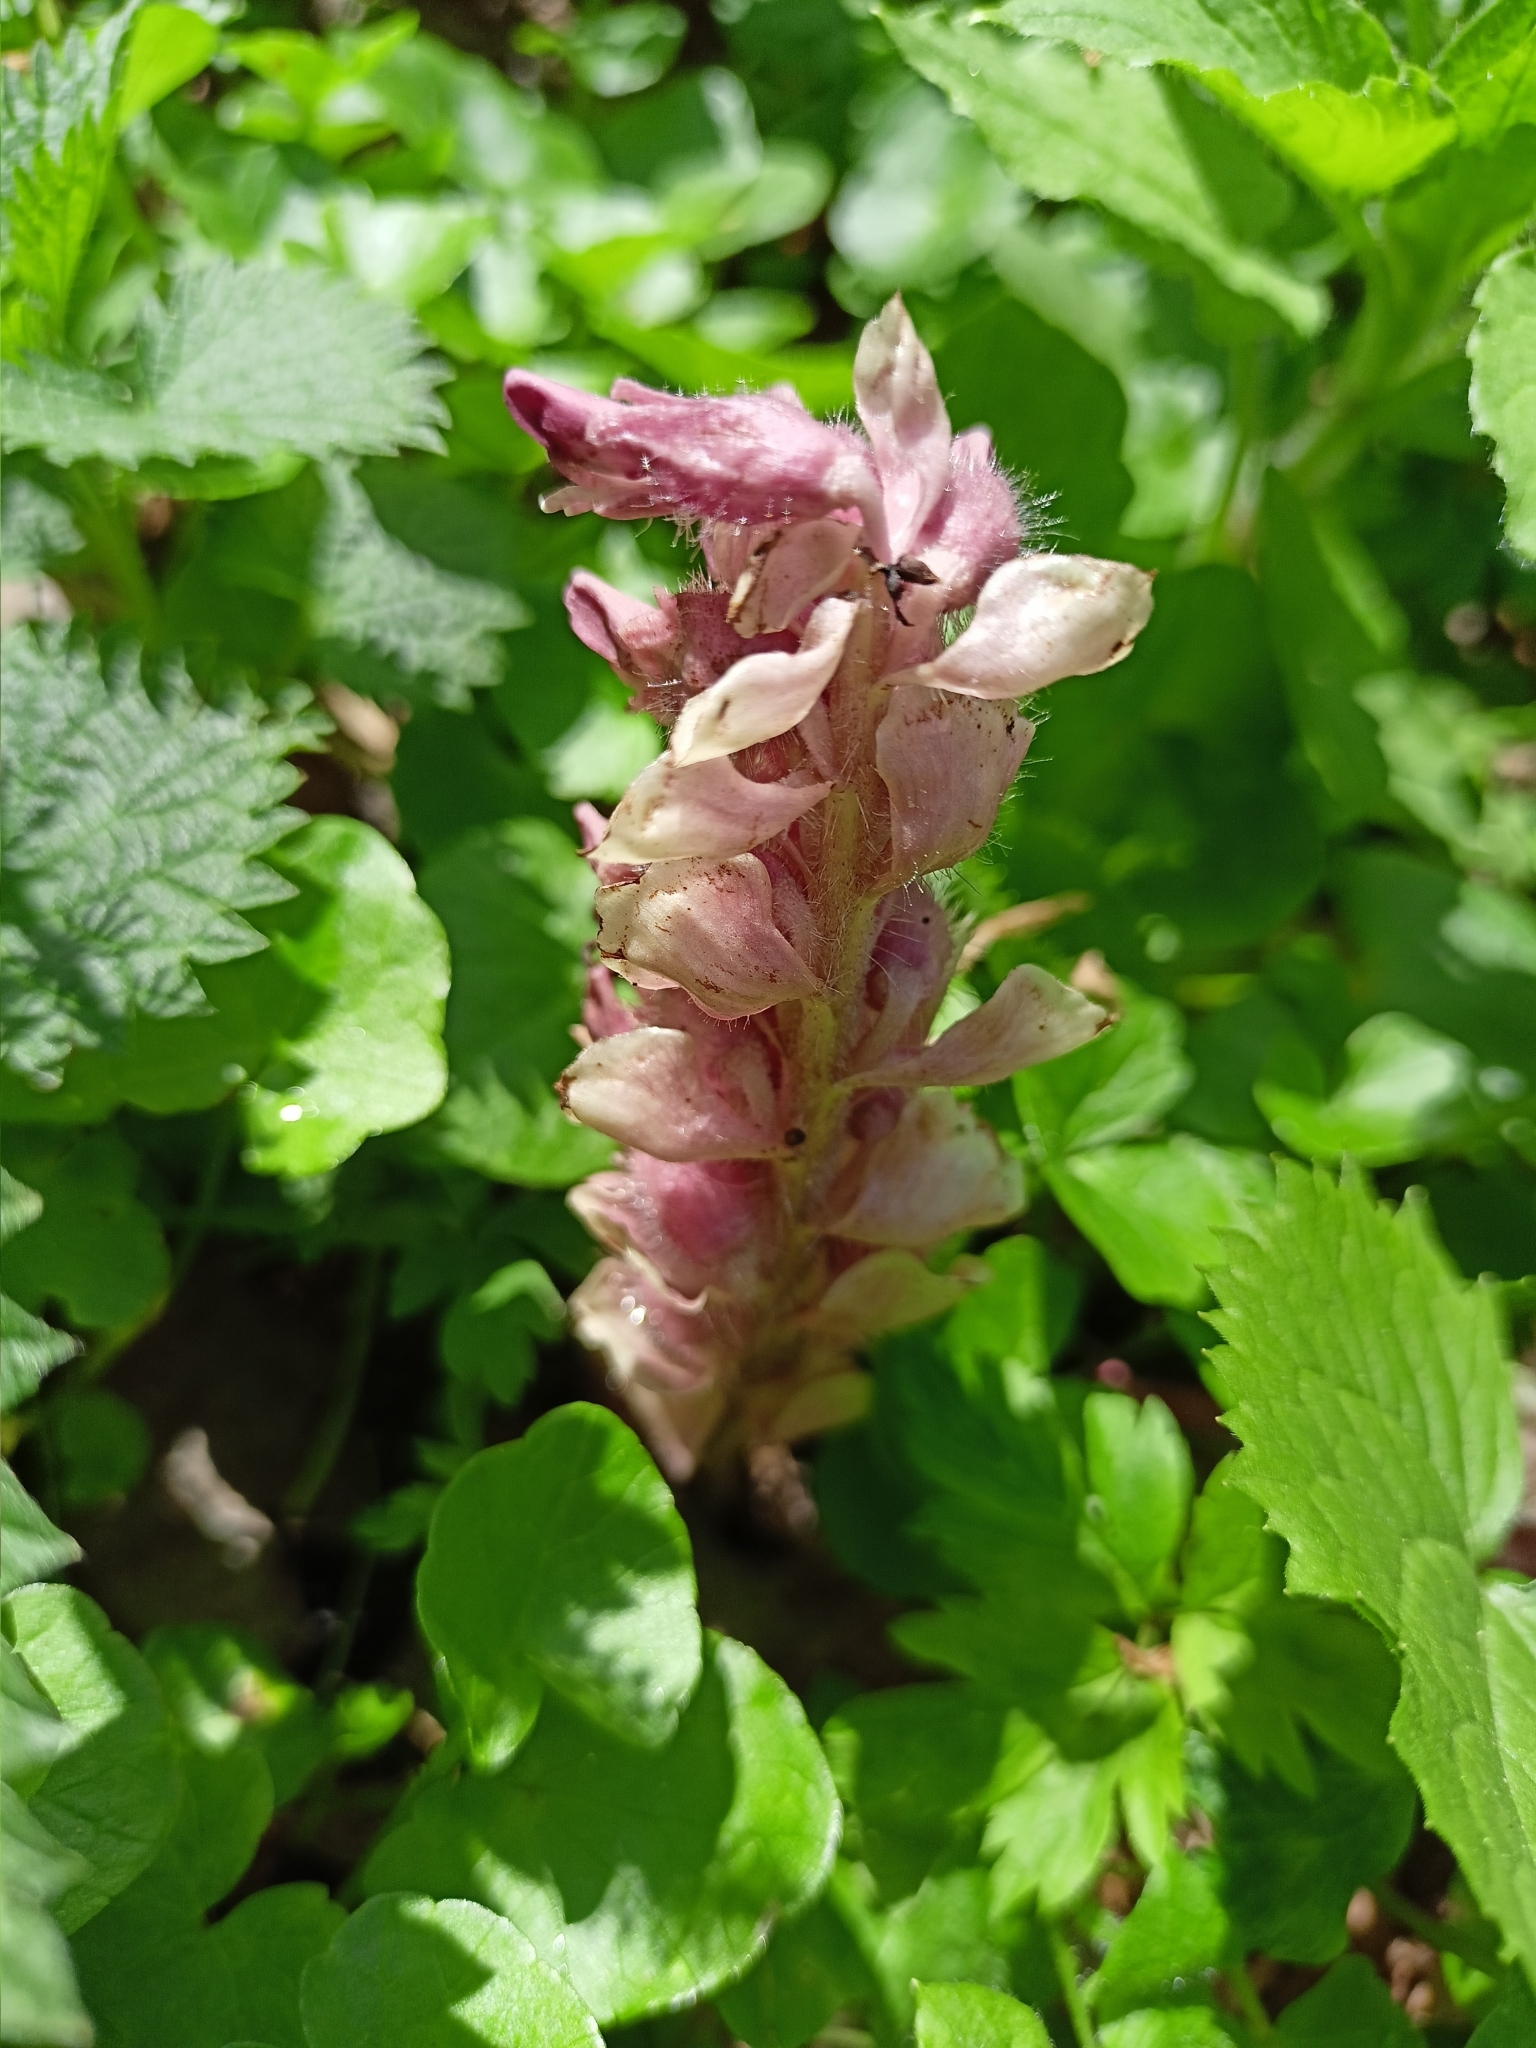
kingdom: Plantae
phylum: Tracheophyta
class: Magnoliopsida
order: Lamiales
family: Orobanchaceae
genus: Lathraea
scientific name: Lathraea squamaria
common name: Toothwort
